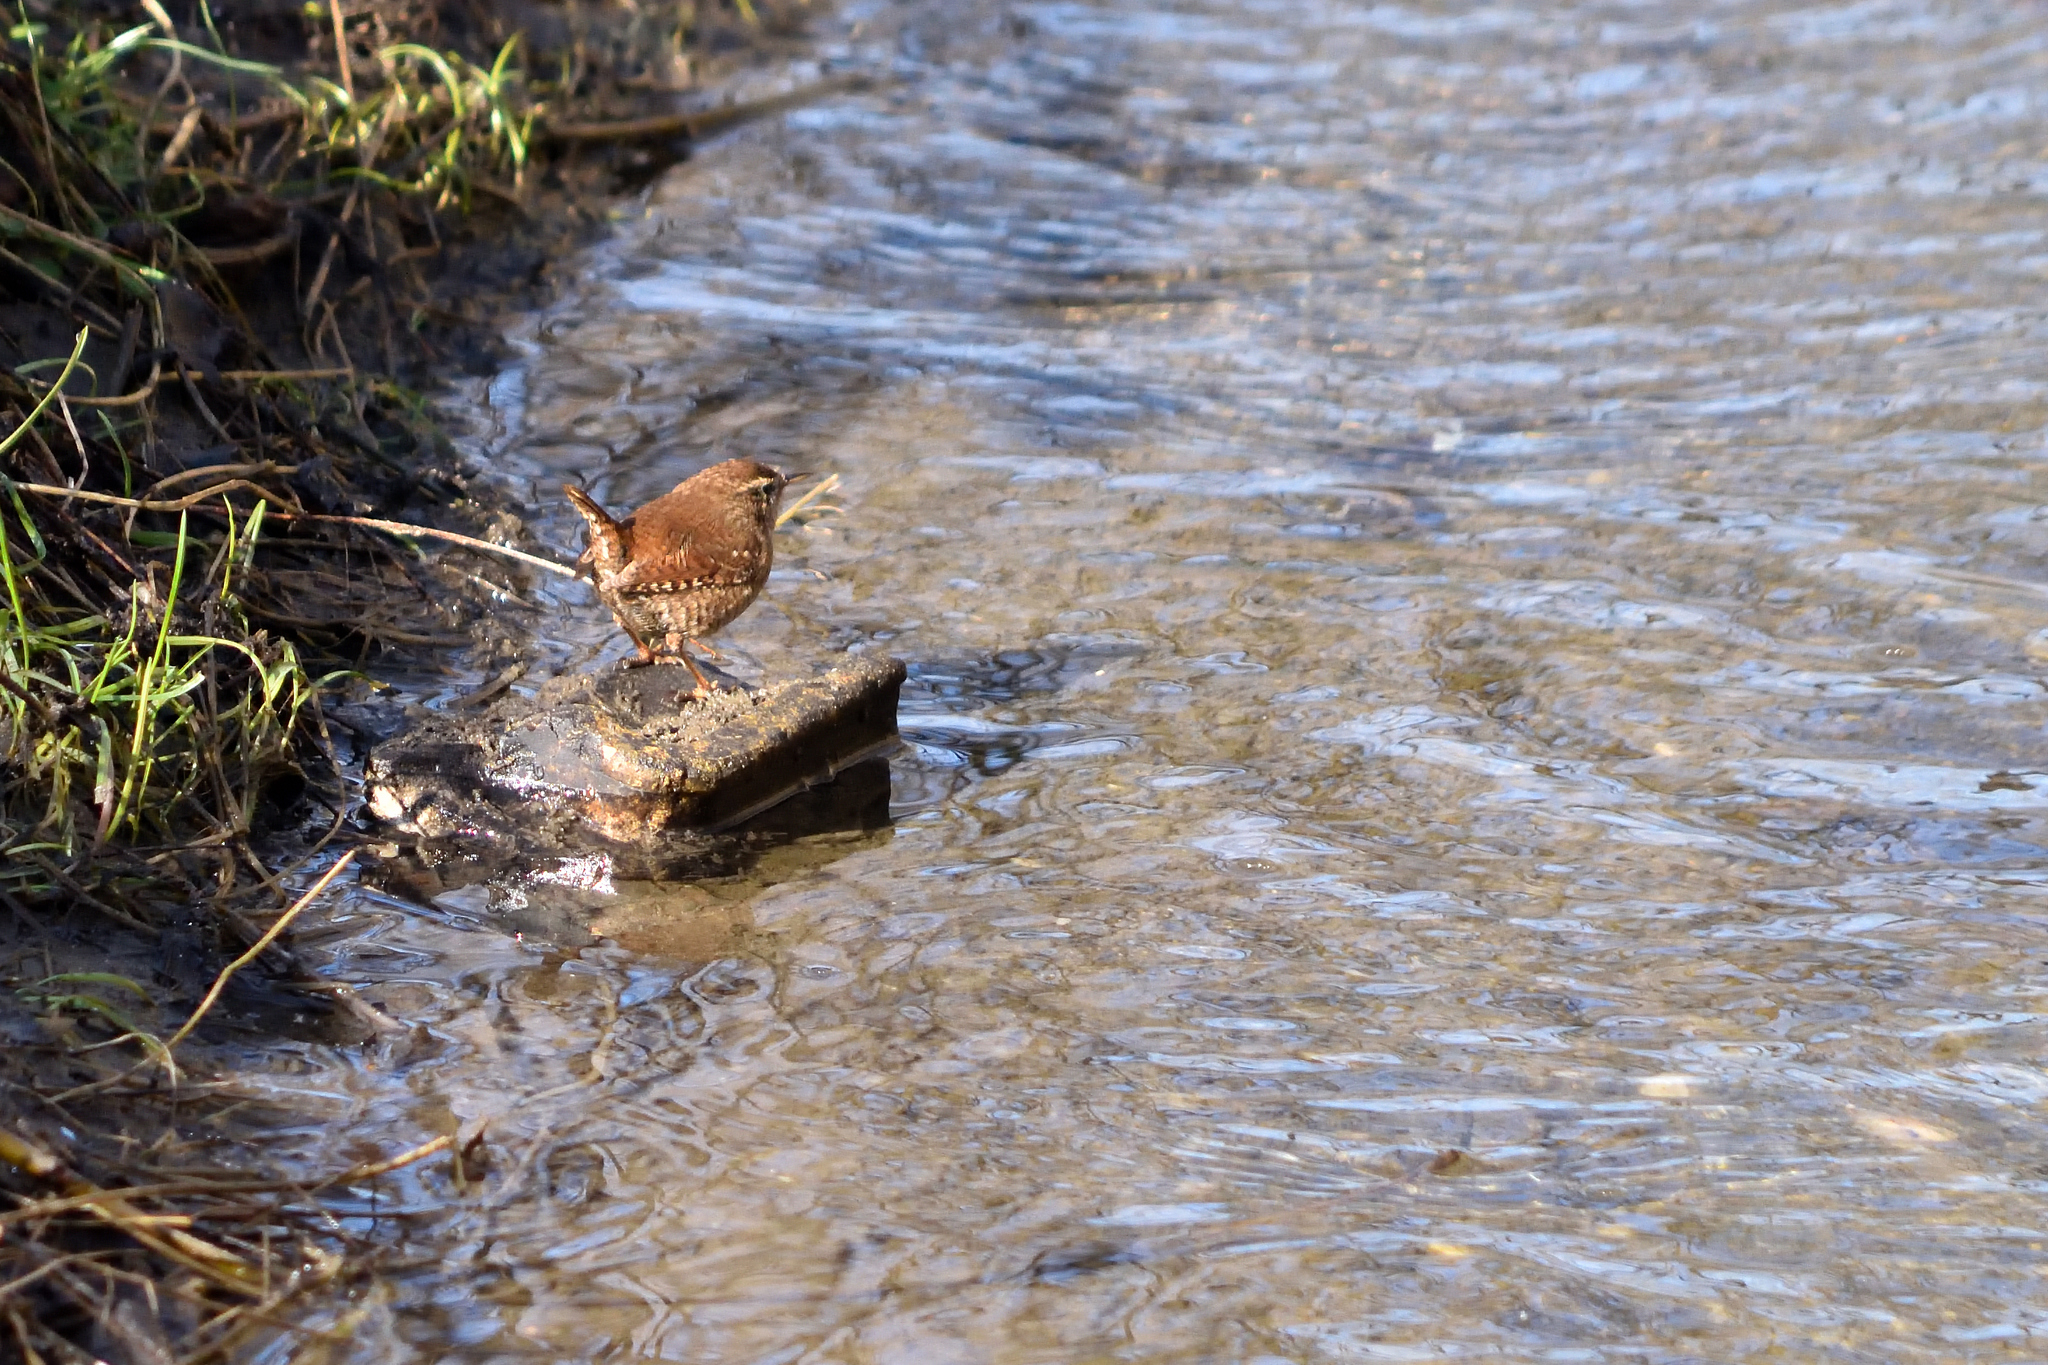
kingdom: Animalia
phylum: Chordata
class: Aves
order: Passeriformes
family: Troglodytidae
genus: Troglodytes
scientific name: Troglodytes troglodytes
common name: Eurasian wren
